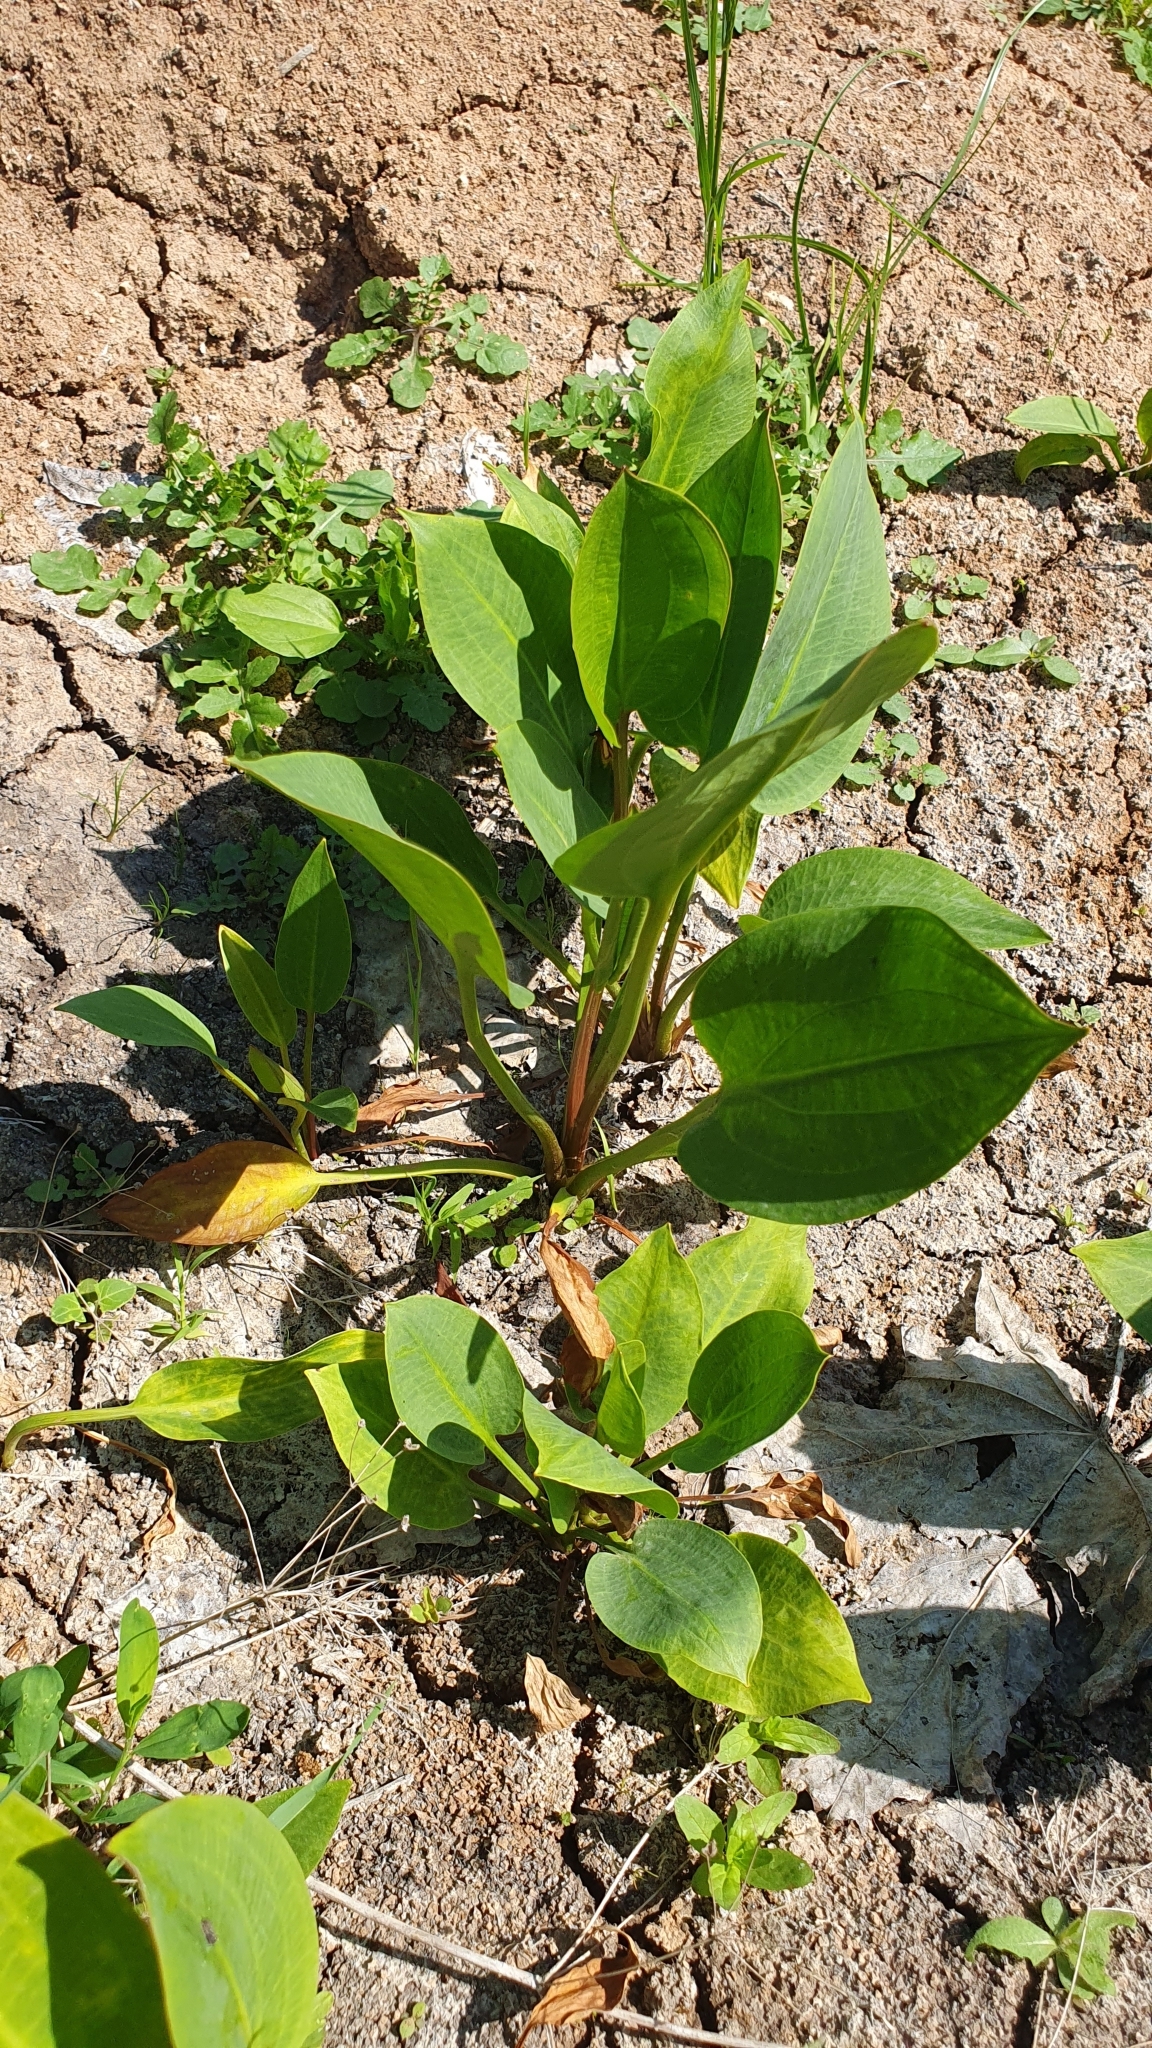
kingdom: Plantae
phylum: Tracheophyta
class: Liliopsida
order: Alismatales
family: Alismataceae
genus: Alisma
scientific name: Alisma plantago-aquatica
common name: Water-plantain
